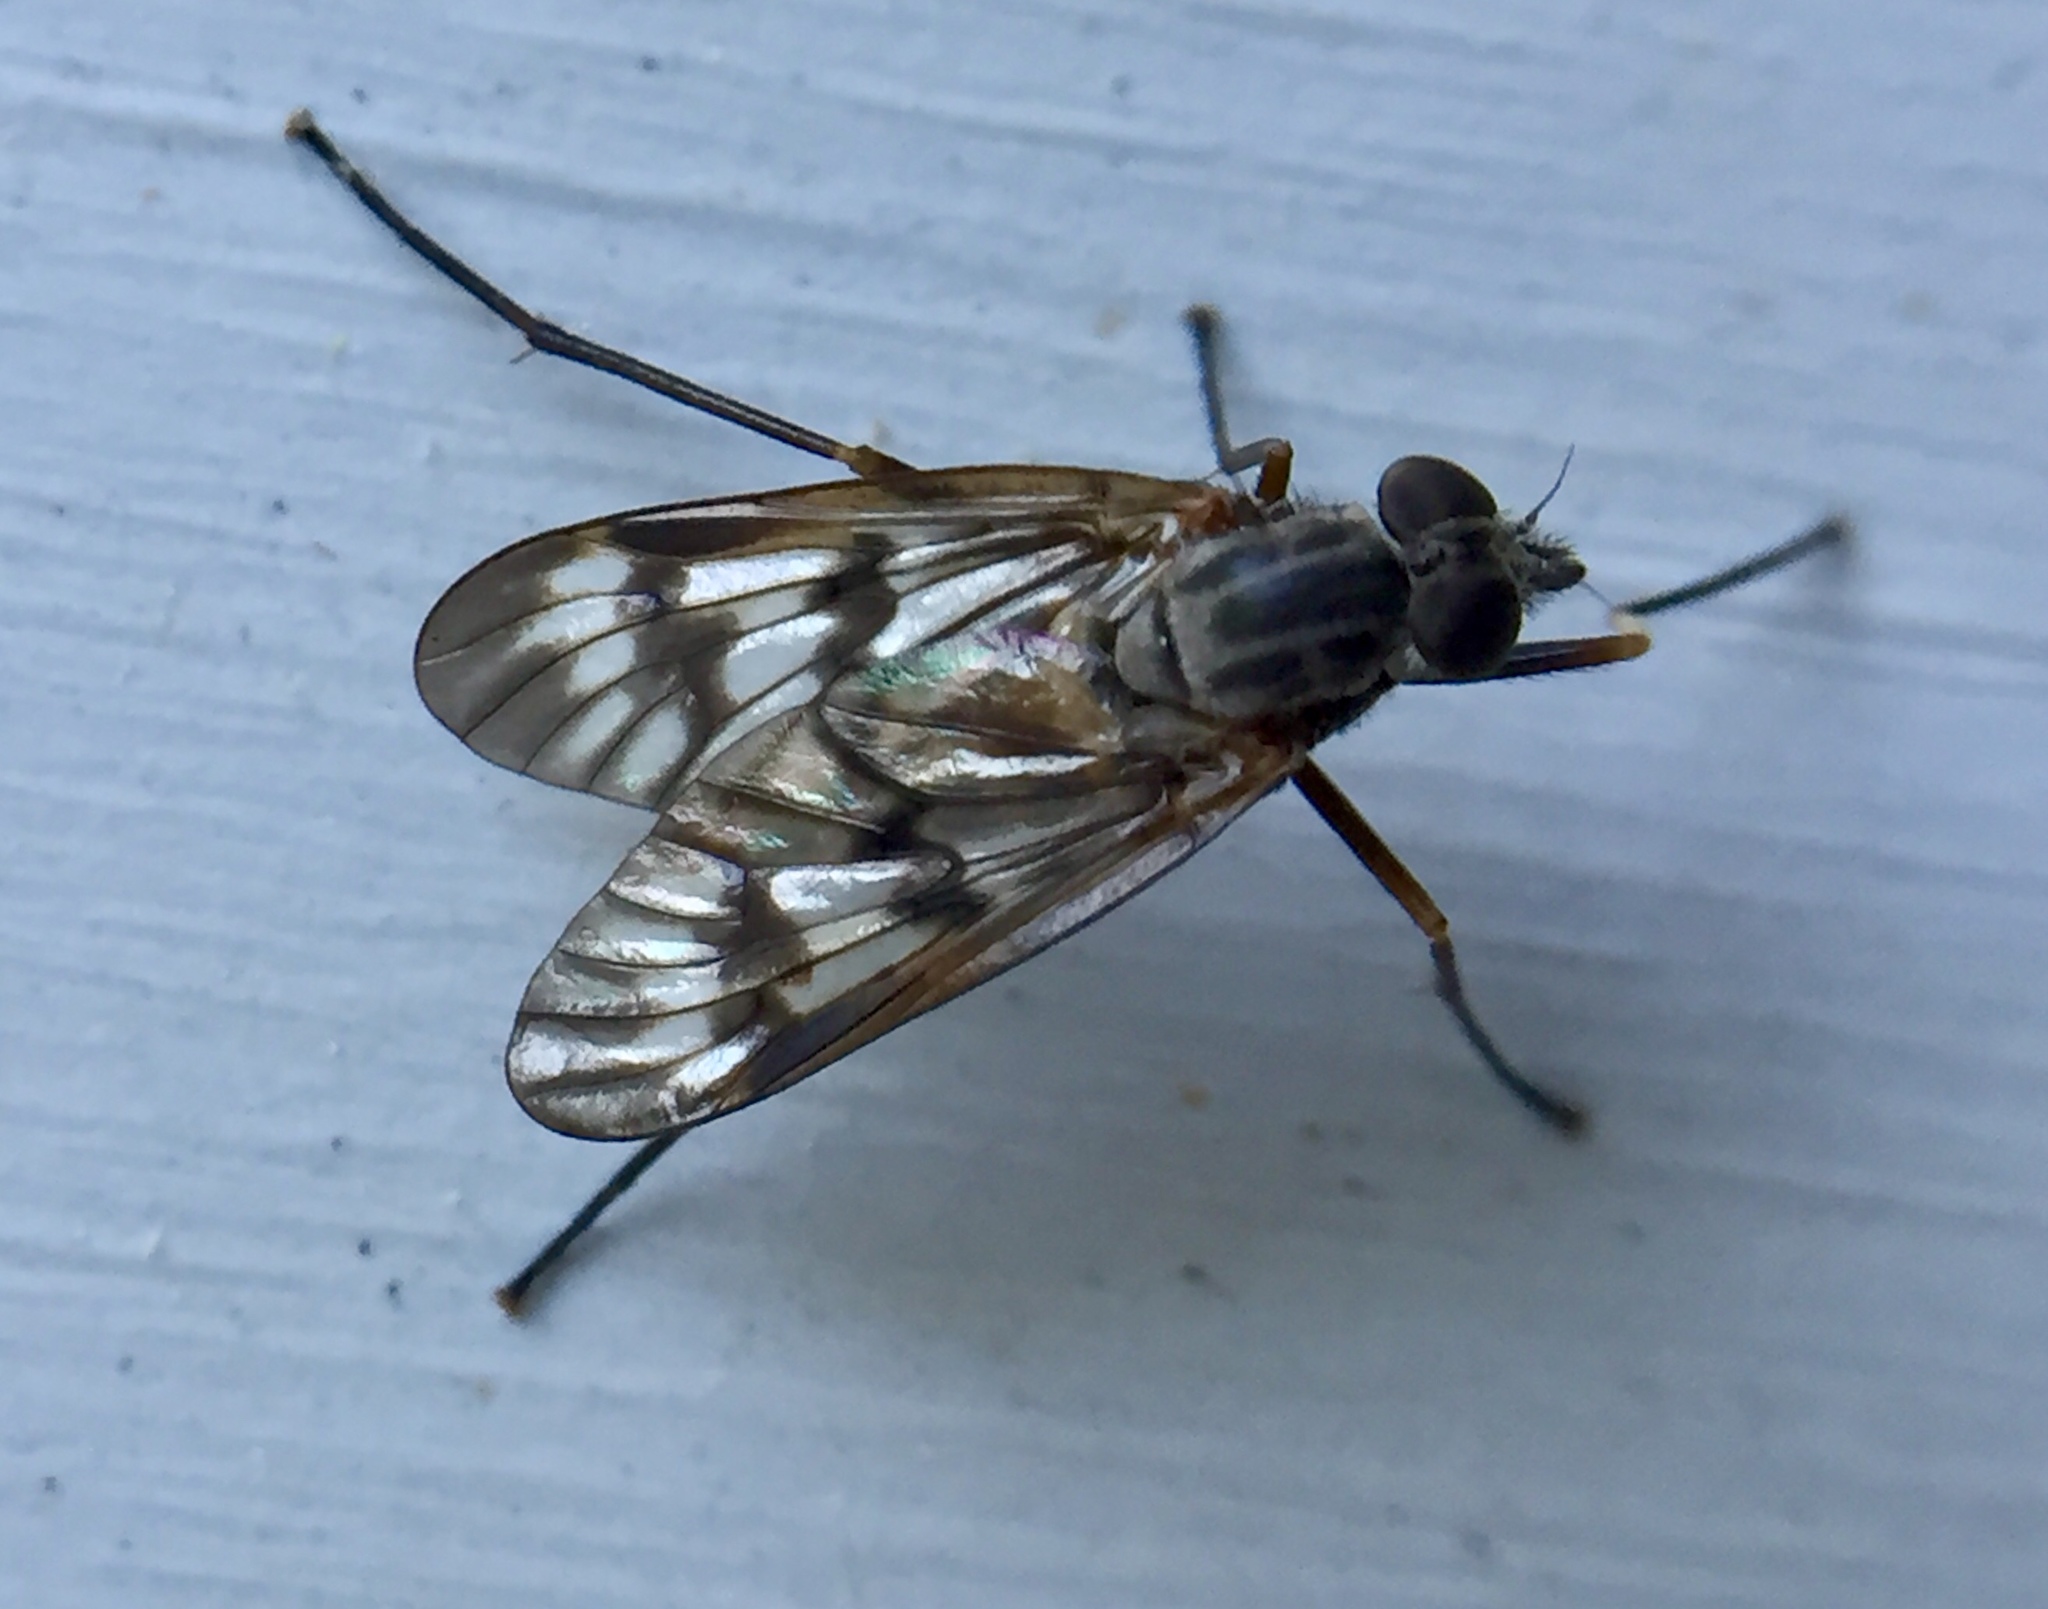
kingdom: Animalia
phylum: Arthropoda
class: Insecta
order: Diptera
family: Rhagionidae
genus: Rhagio
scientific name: Rhagio mystaceus
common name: Common snipe fly
